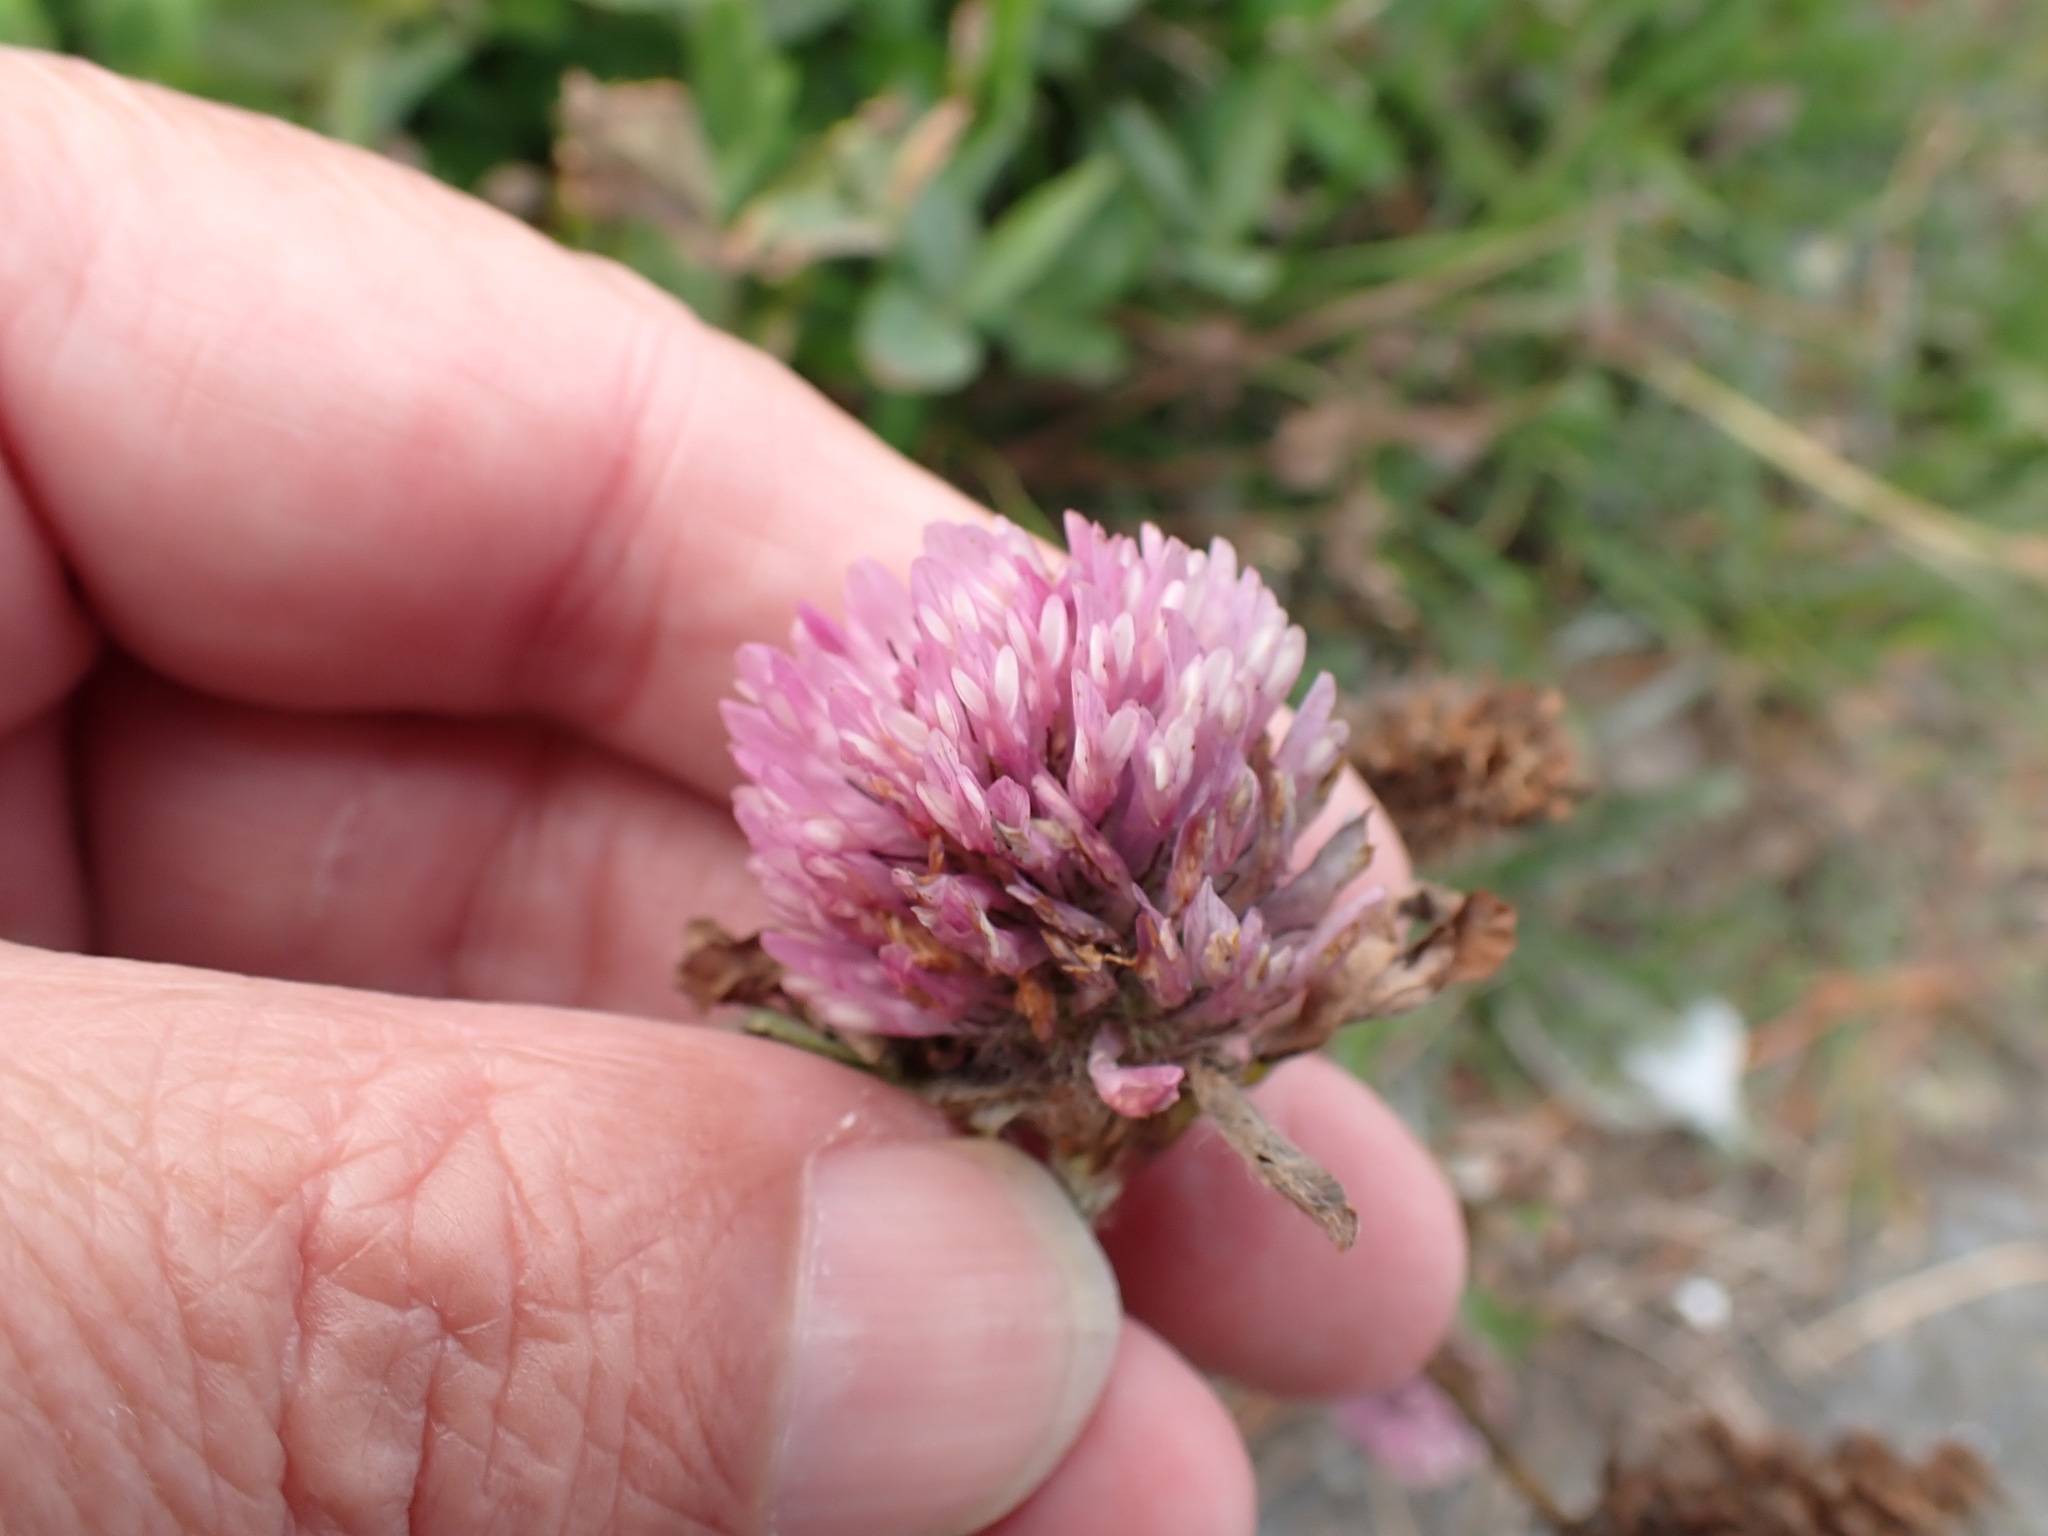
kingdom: Plantae
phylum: Tracheophyta
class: Magnoliopsida
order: Fabales
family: Fabaceae
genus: Trifolium
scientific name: Trifolium pratense
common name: Red clover
